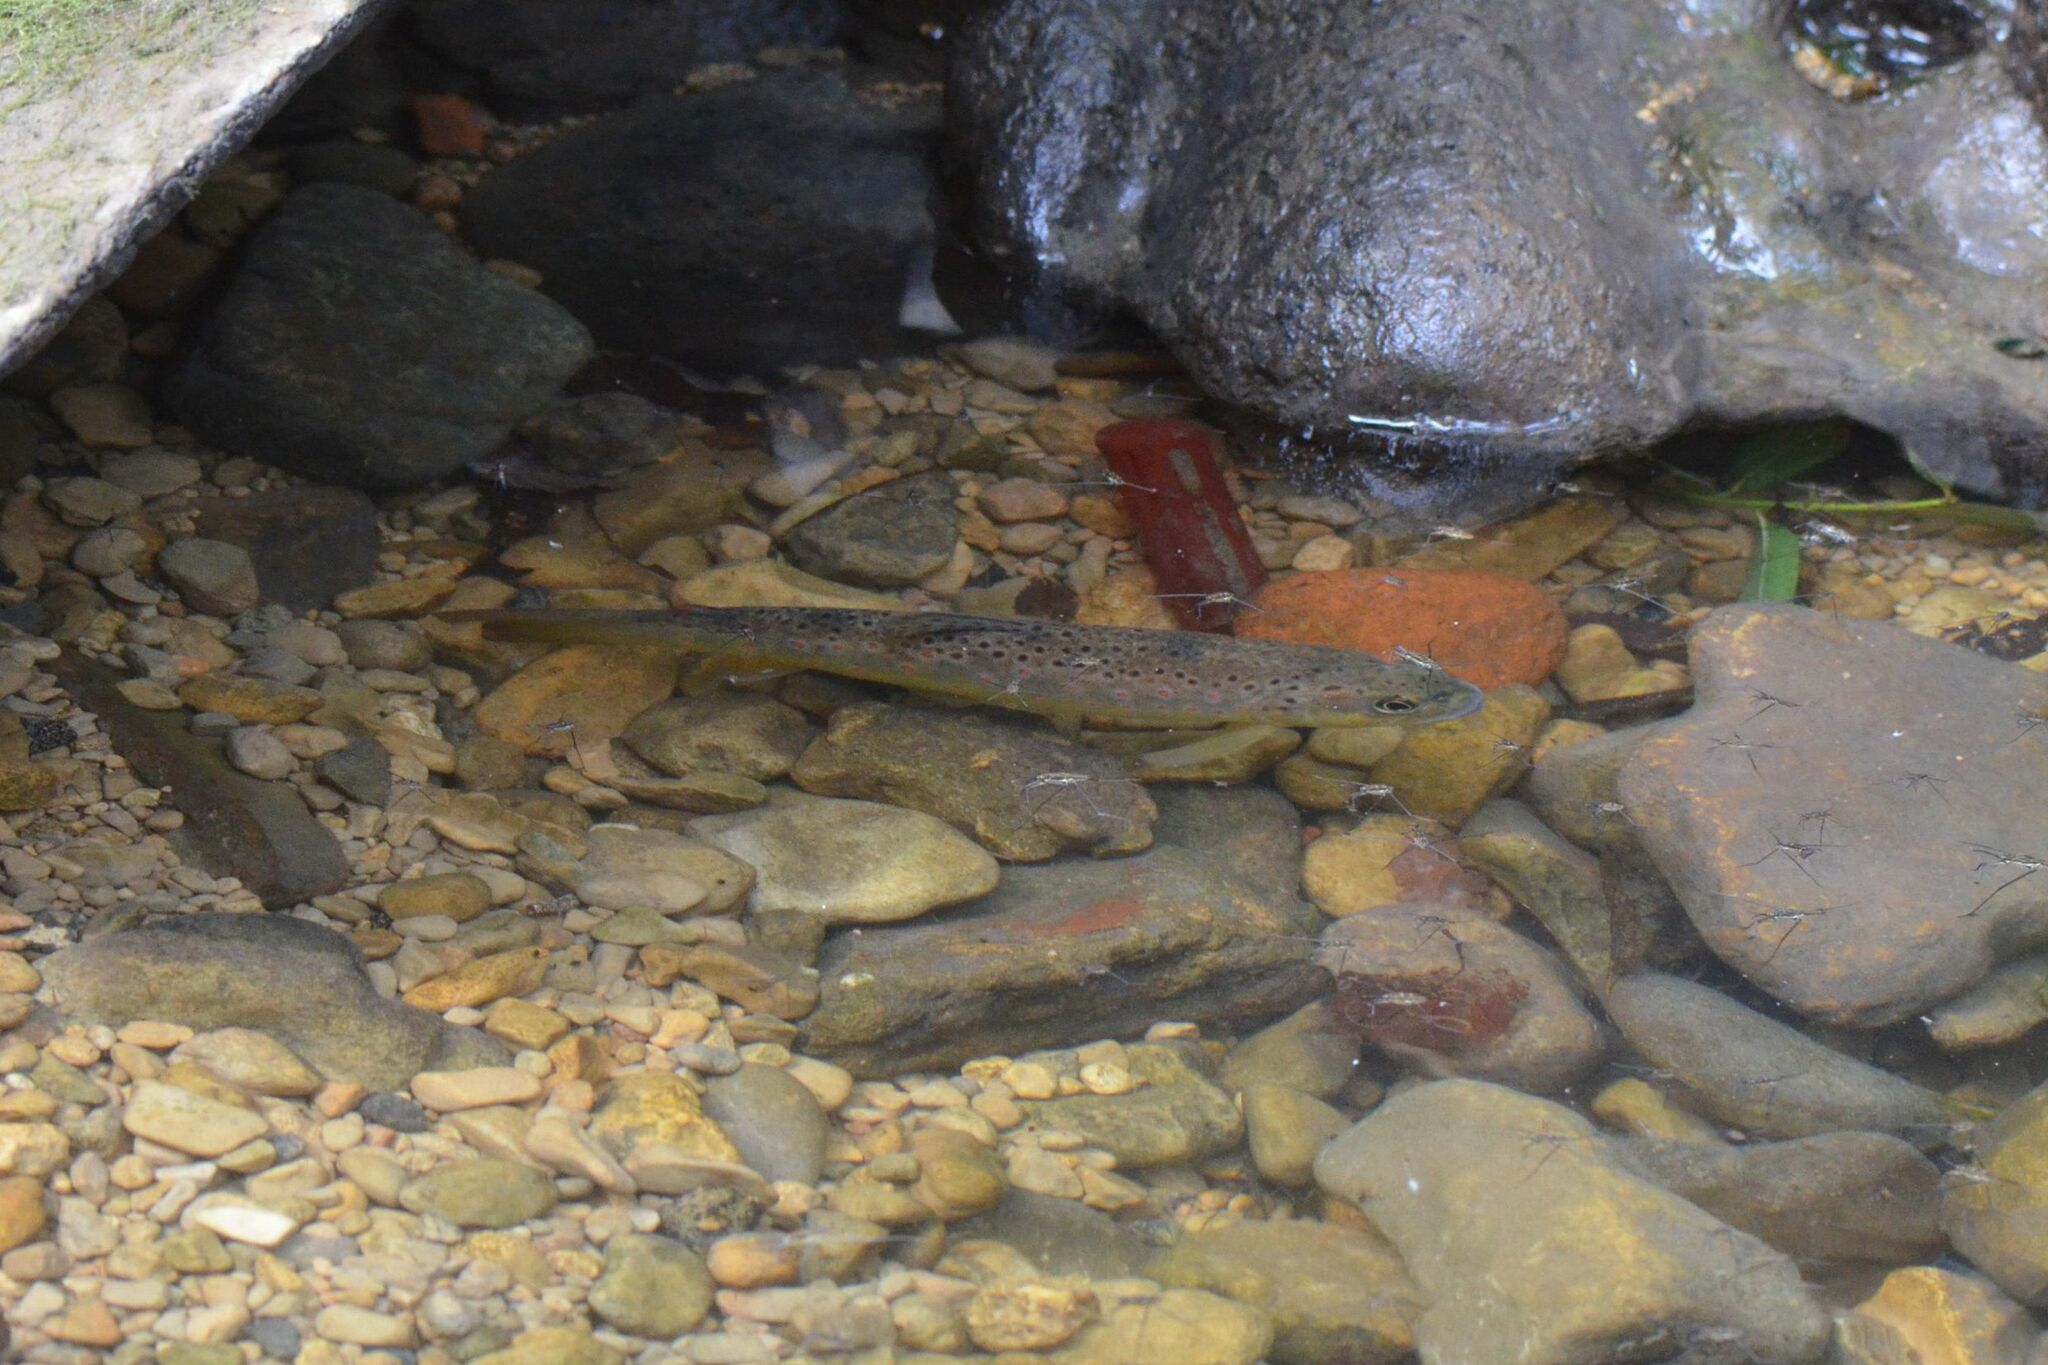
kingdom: Animalia
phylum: Chordata
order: Salmoniformes
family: Salmonidae
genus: Salmo
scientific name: Salmo trutta
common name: Brown trout
